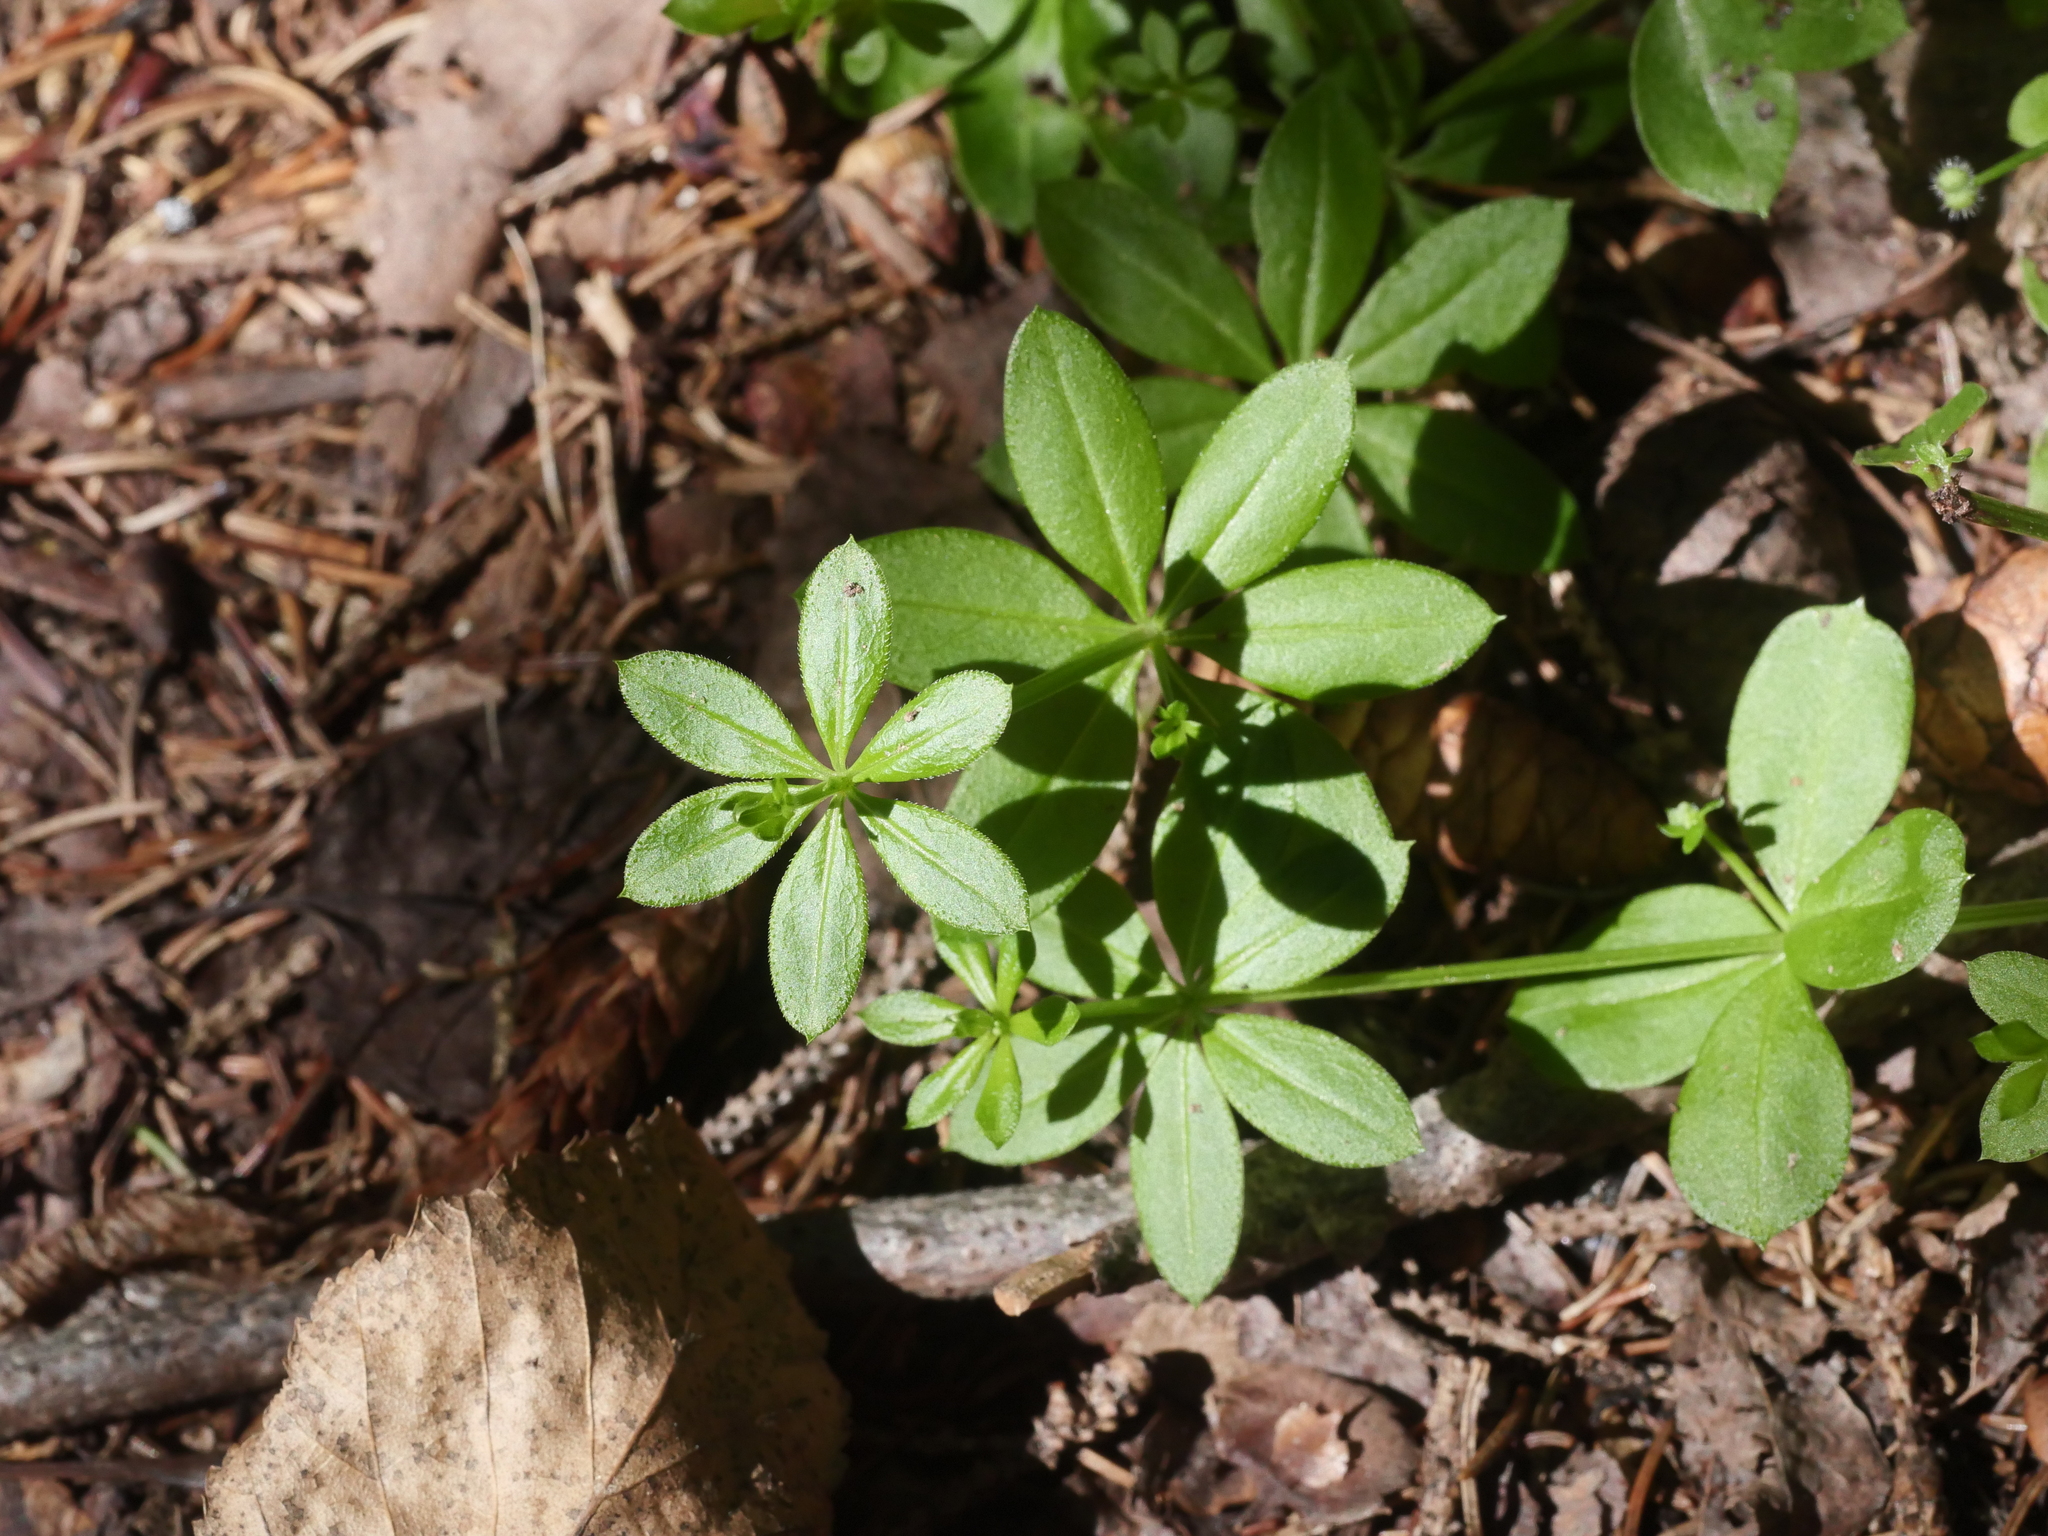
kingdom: Plantae
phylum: Tracheophyta
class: Magnoliopsida
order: Gentianales
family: Rubiaceae
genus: Galium
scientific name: Galium triflorum
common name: Fragrant bedstraw
